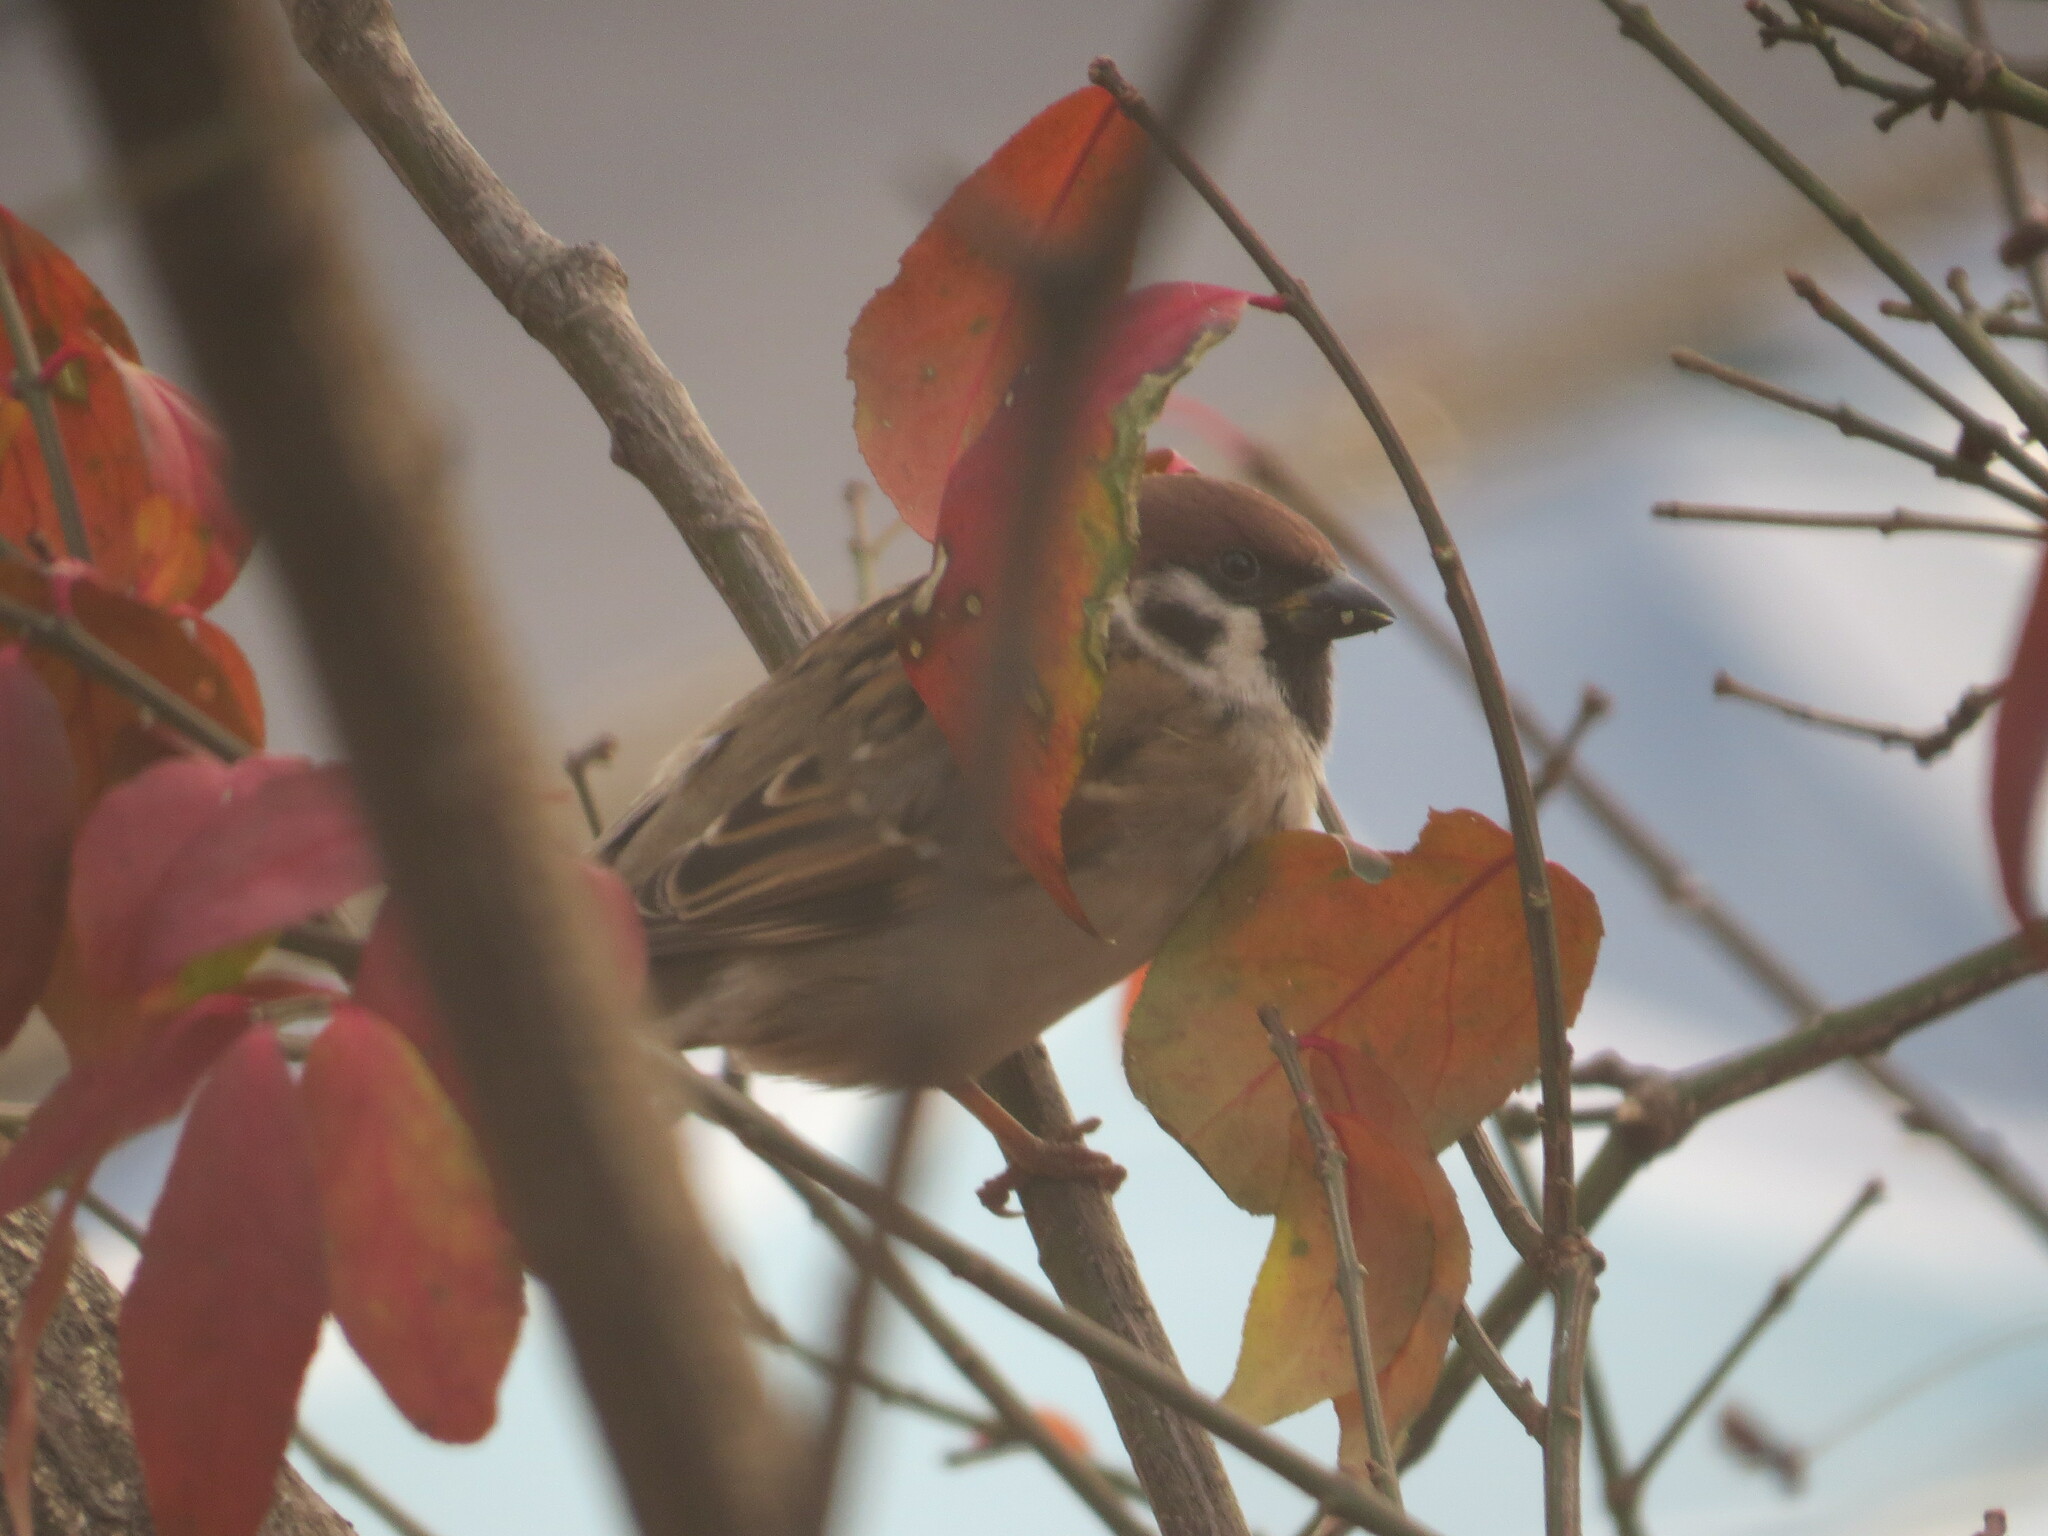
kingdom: Animalia
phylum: Chordata
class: Aves
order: Passeriformes
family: Passeridae
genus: Passer
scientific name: Passer montanus
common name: Eurasian tree sparrow
